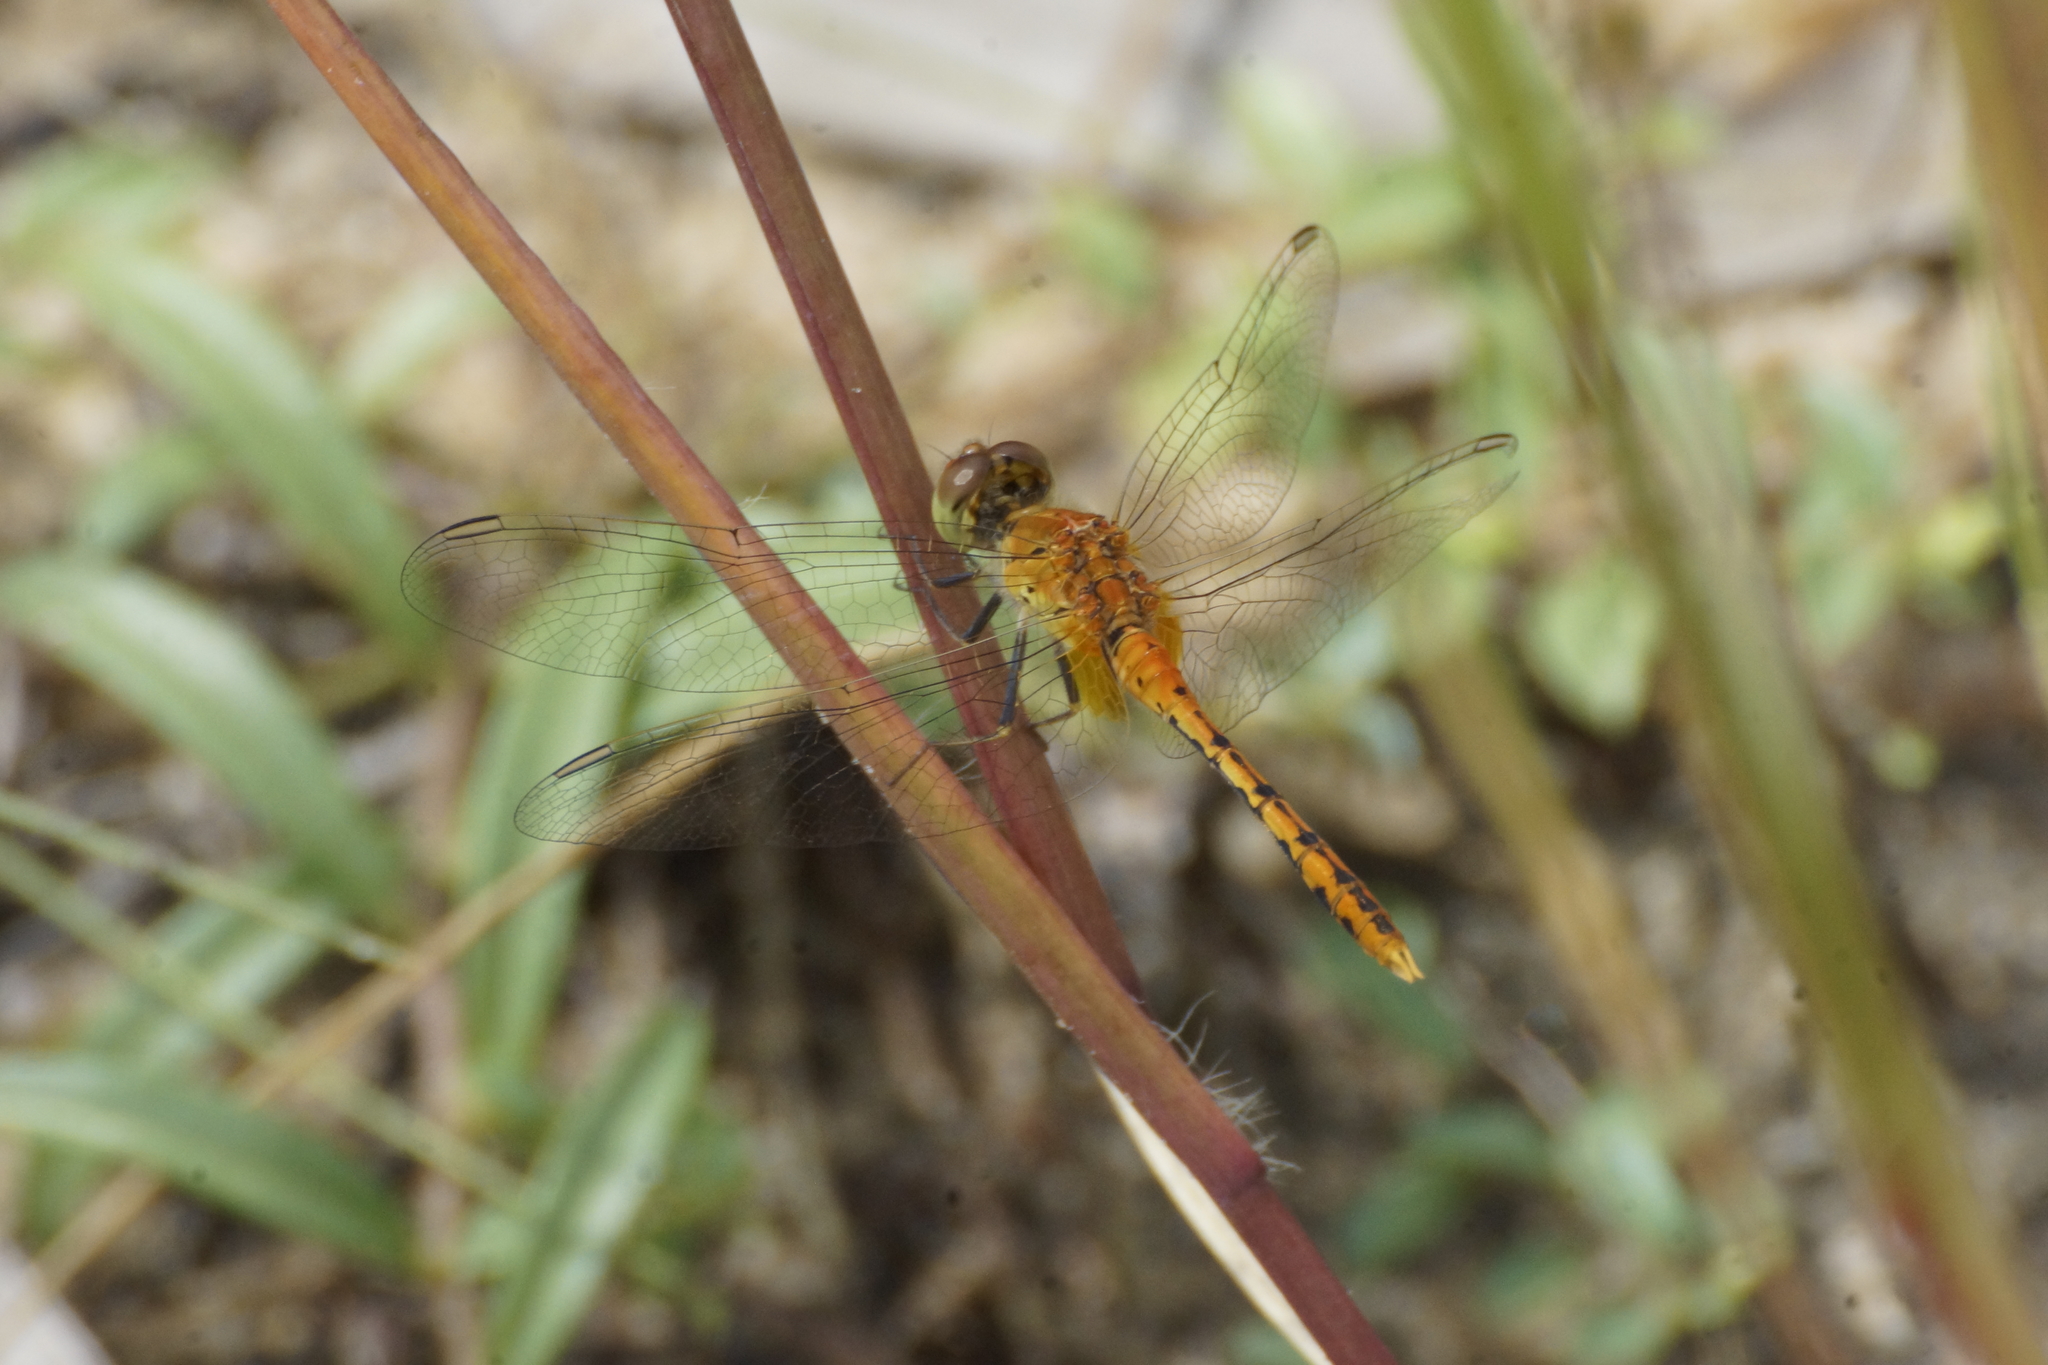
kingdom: Animalia
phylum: Arthropoda
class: Insecta
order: Odonata
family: Libellulidae
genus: Diplacodes
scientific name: Diplacodes bipunctata
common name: Red percher dragonfly
